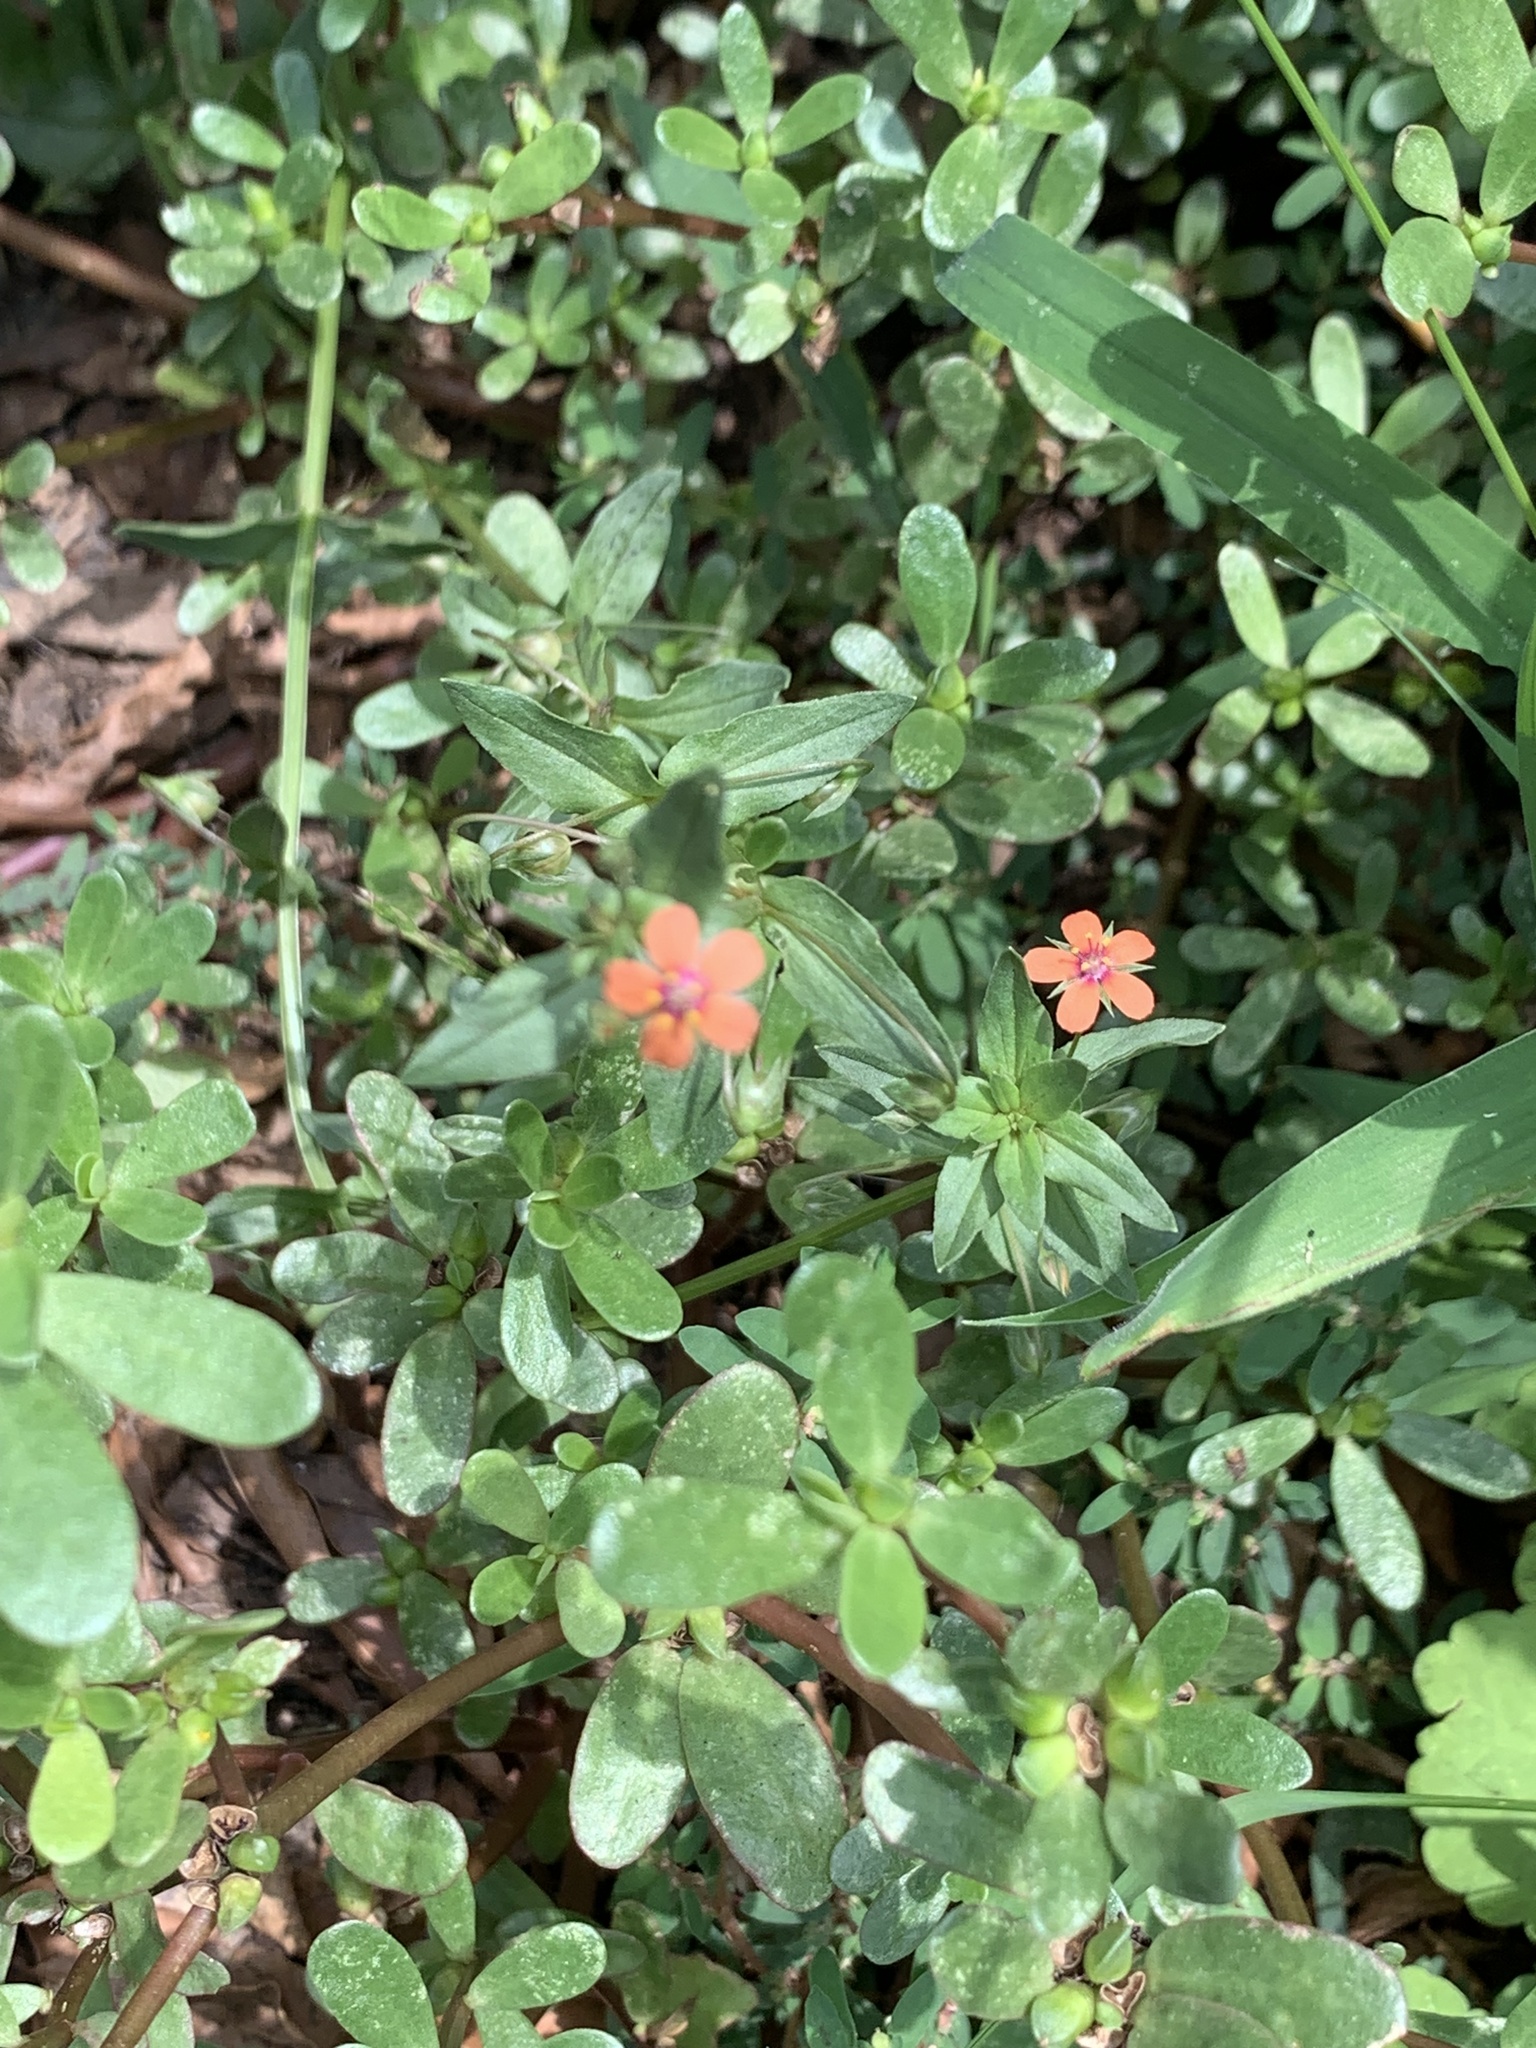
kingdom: Plantae
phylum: Tracheophyta
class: Magnoliopsida
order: Ericales
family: Primulaceae
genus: Lysimachia
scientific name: Lysimachia arvensis
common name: Scarlet pimpernel
